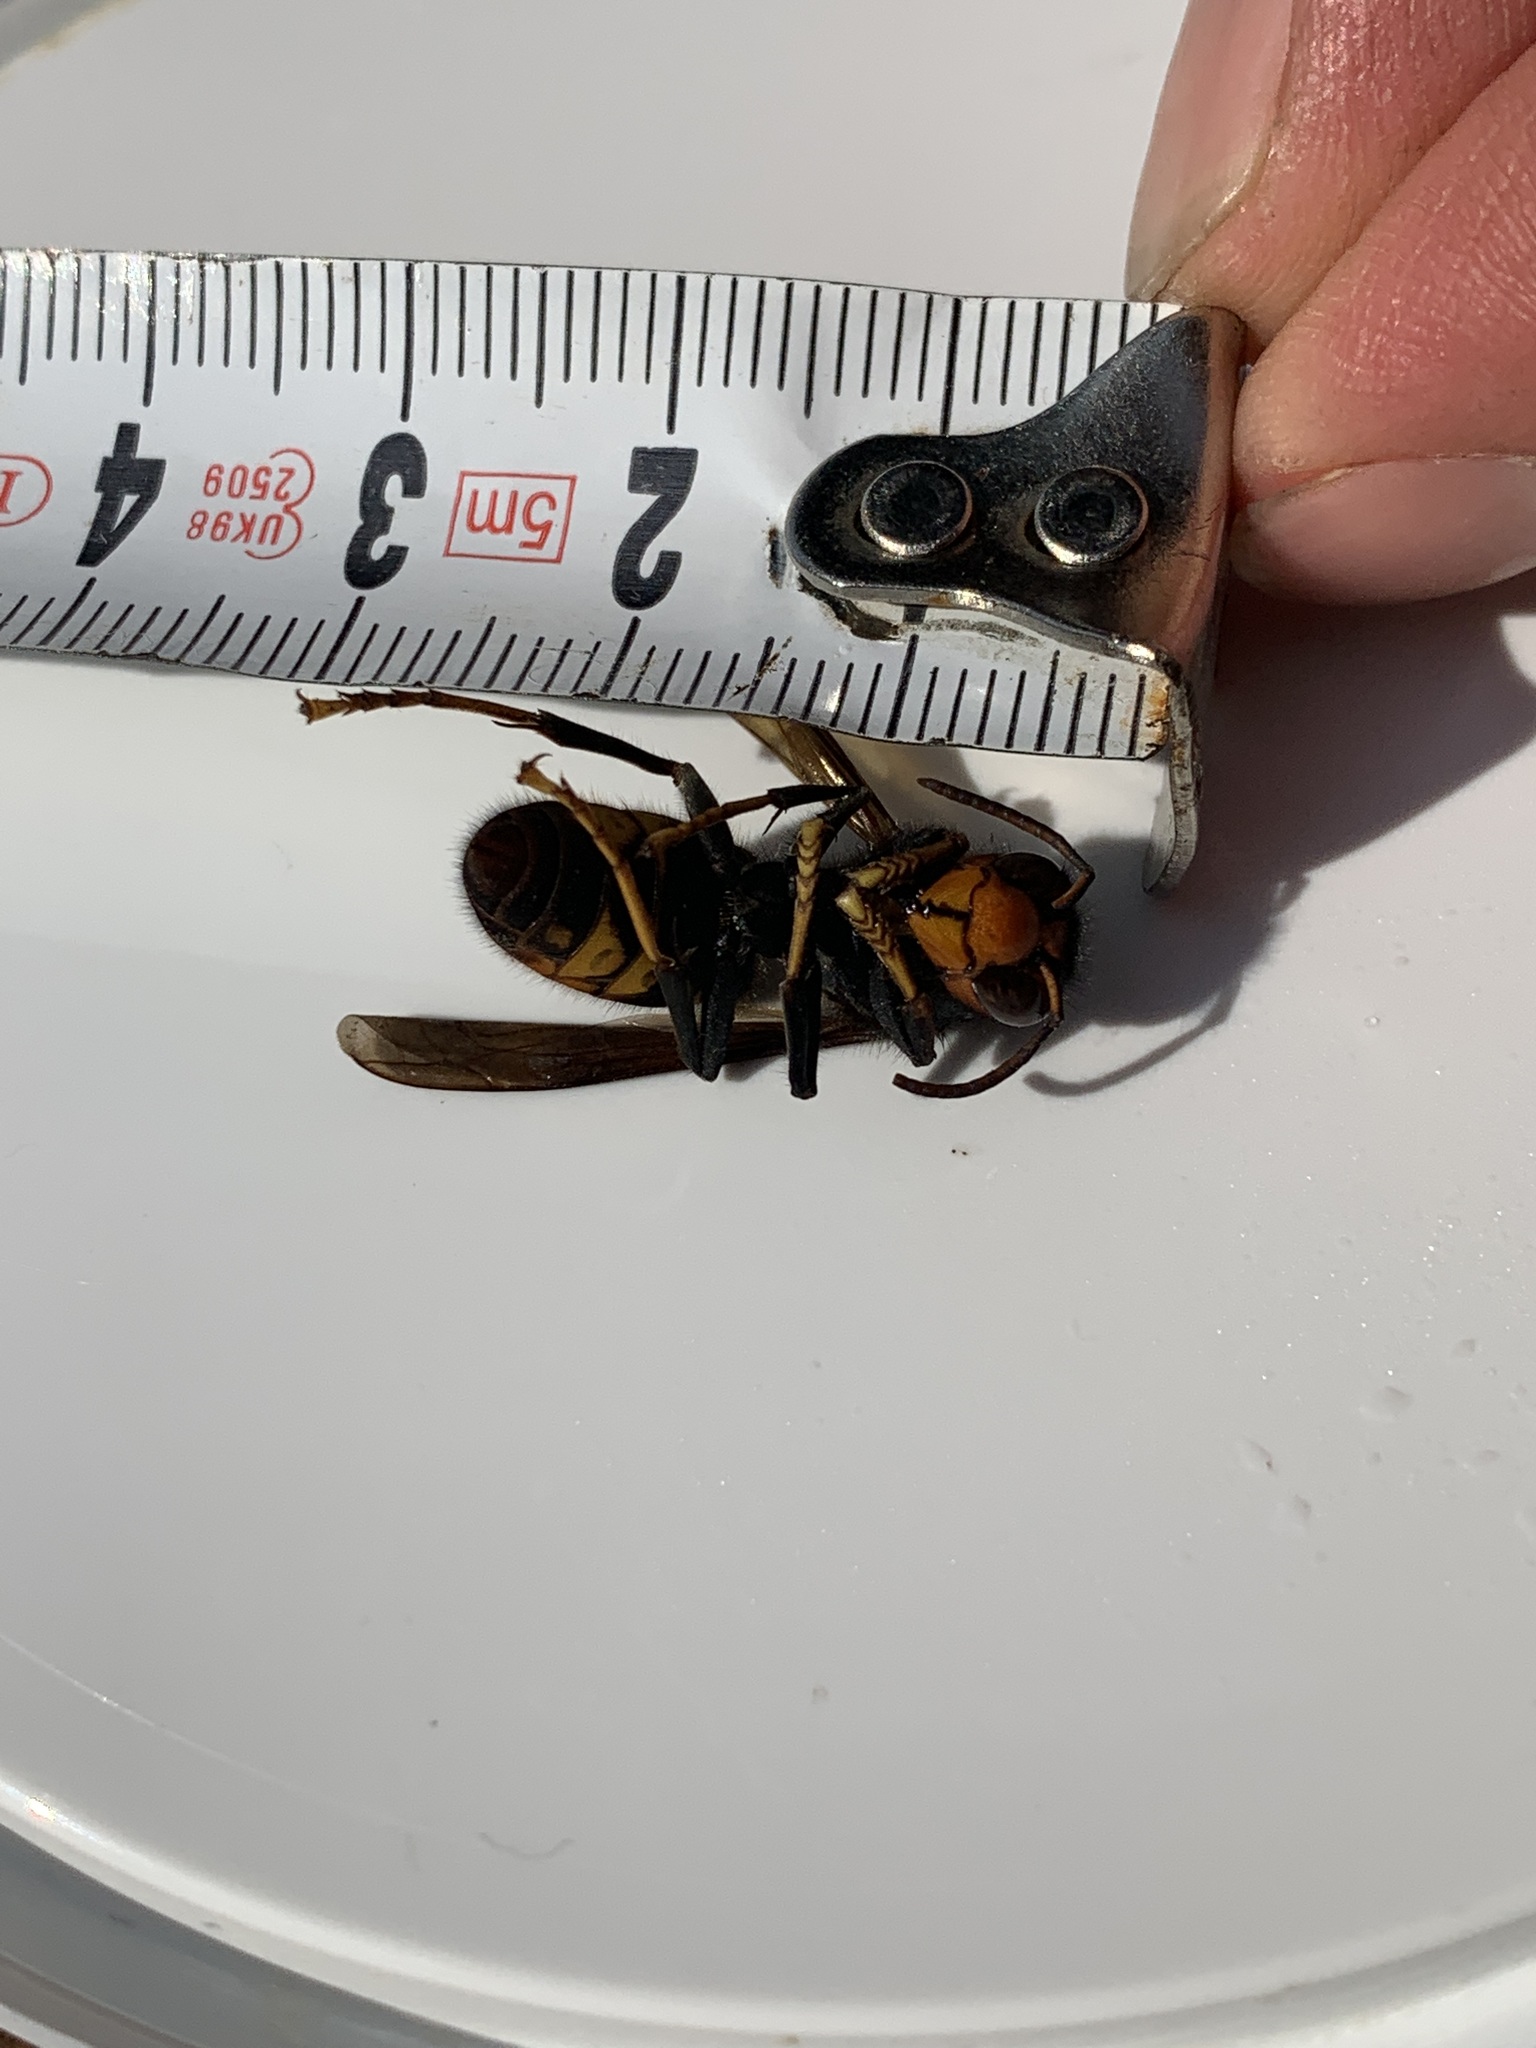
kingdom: Animalia
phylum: Arthropoda
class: Insecta
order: Hymenoptera
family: Vespidae
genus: Vespa
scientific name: Vespa velutina
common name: Asian hornet
